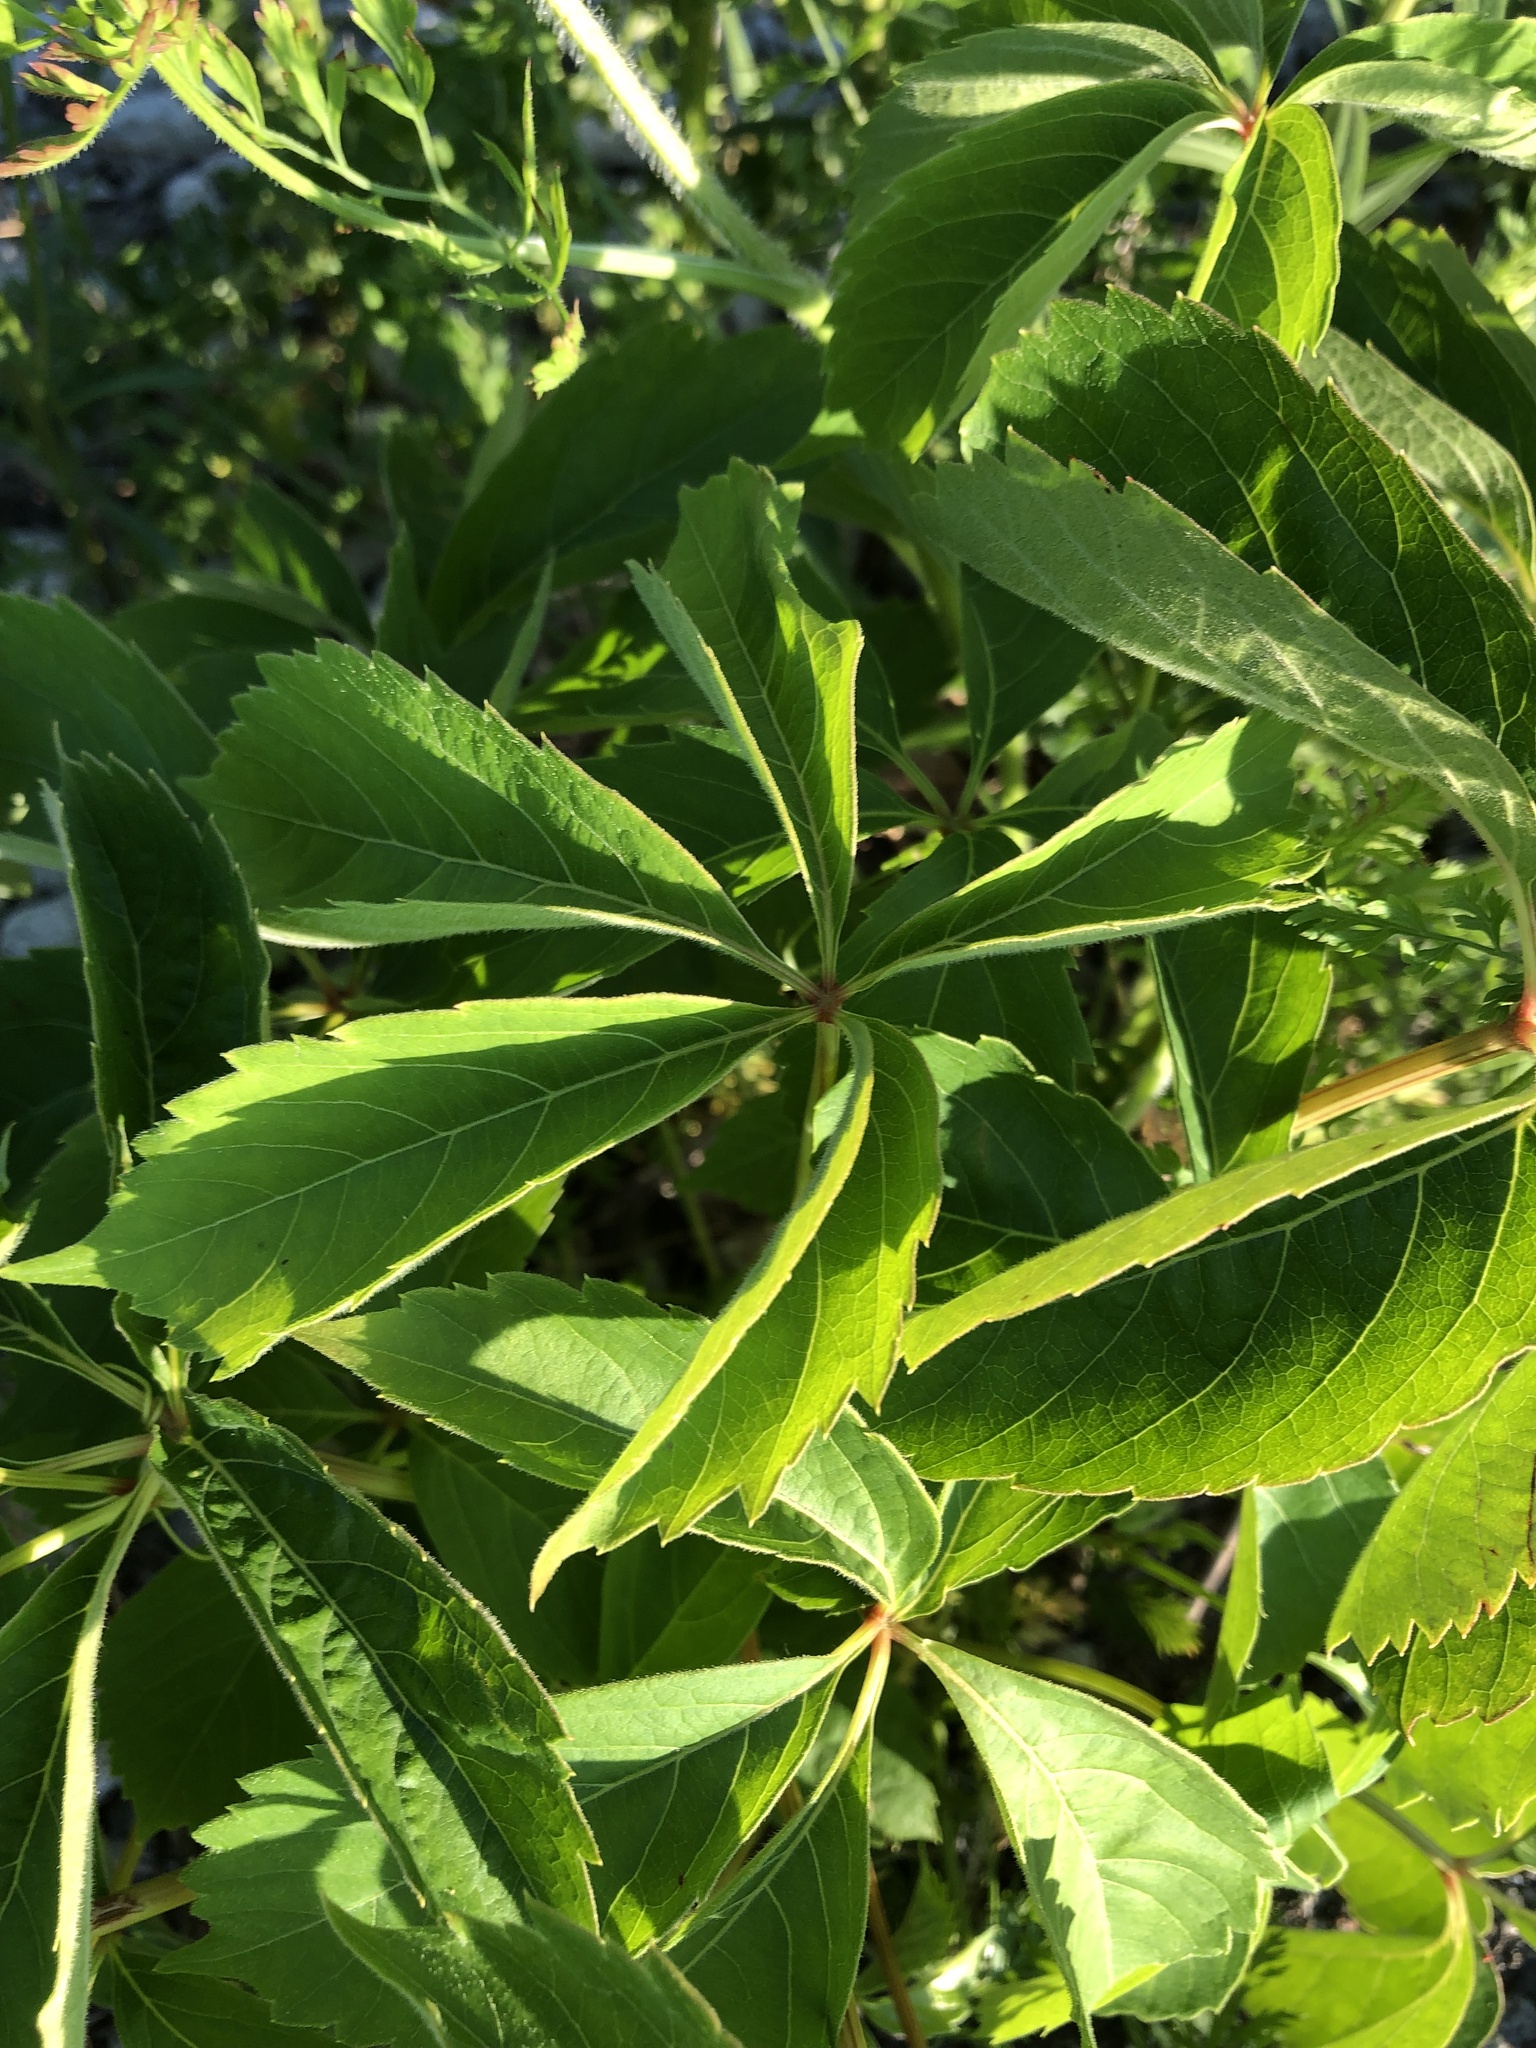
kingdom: Plantae
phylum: Tracheophyta
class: Magnoliopsida
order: Vitales
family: Vitaceae
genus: Parthenocissus
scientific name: Parthenocissus quinquefolia
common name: Virginia-creeper
